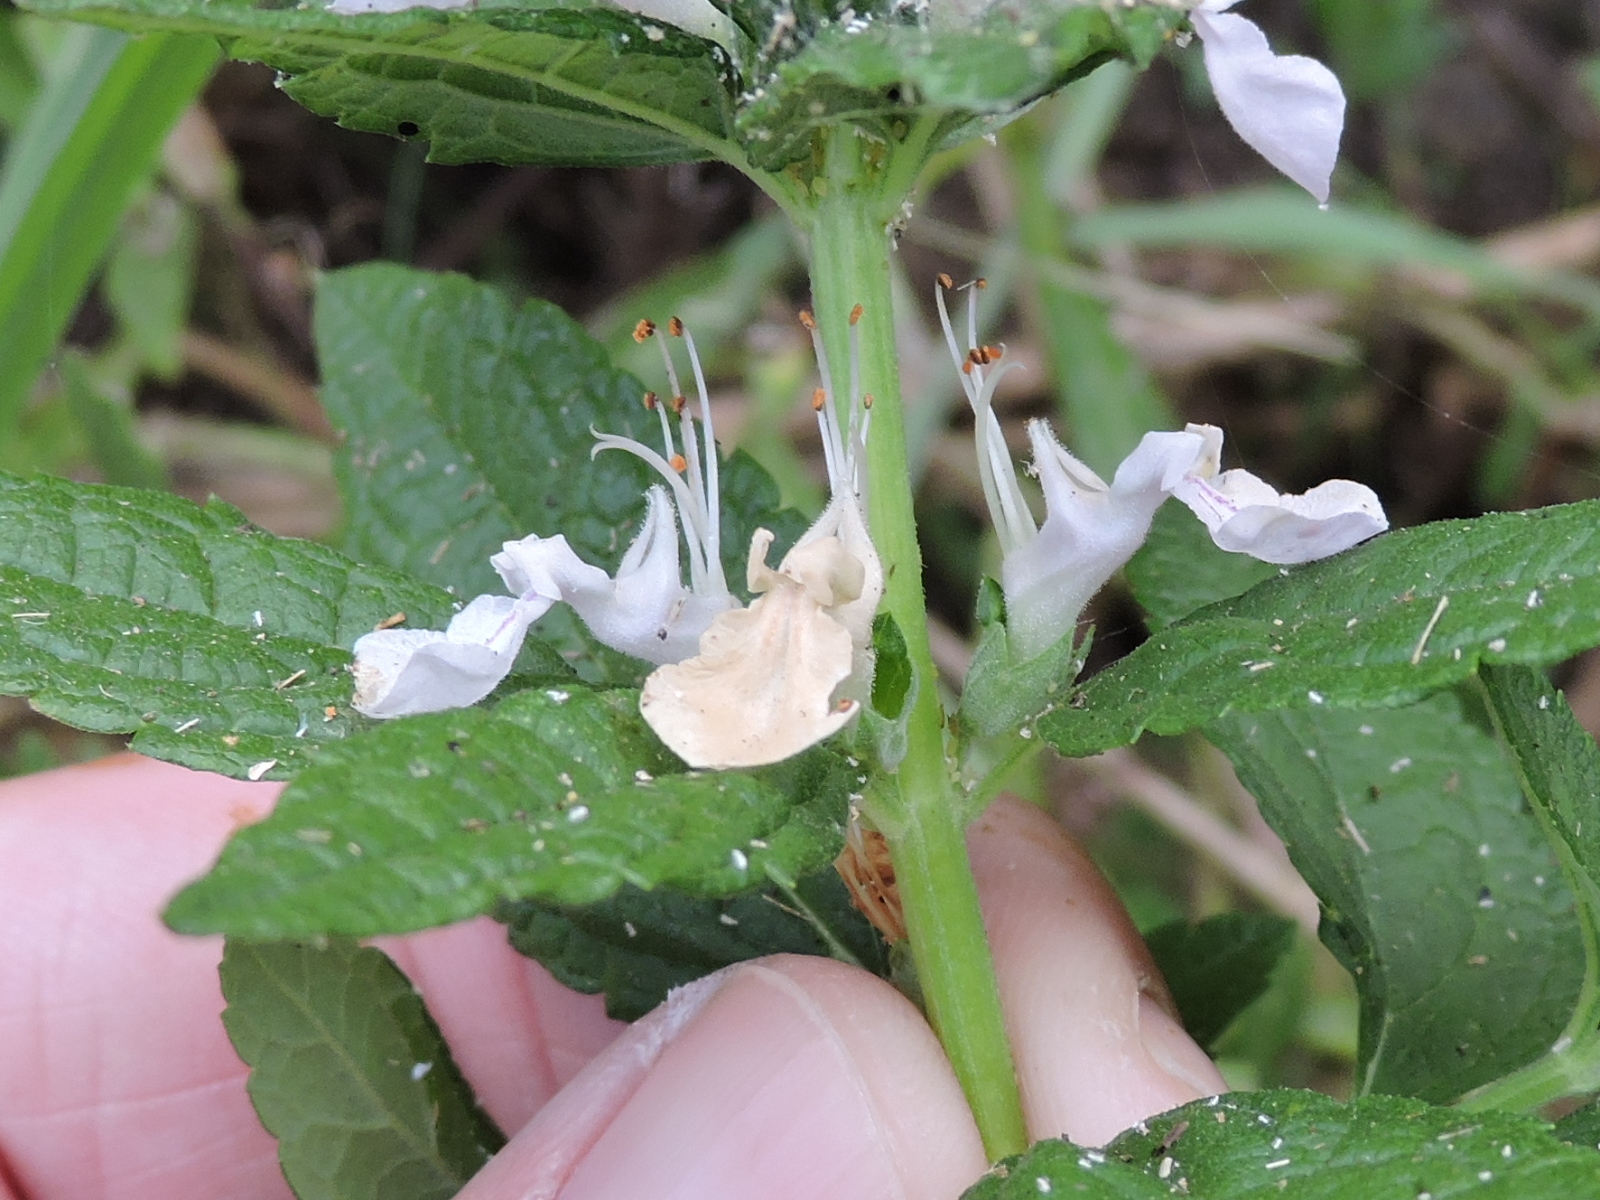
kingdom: Plantae
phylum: Tracheophyta
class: Magnoliopsida
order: Lamiales
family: Lamiaceae
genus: Teucrium
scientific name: Teucrium canadense
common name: American germander
